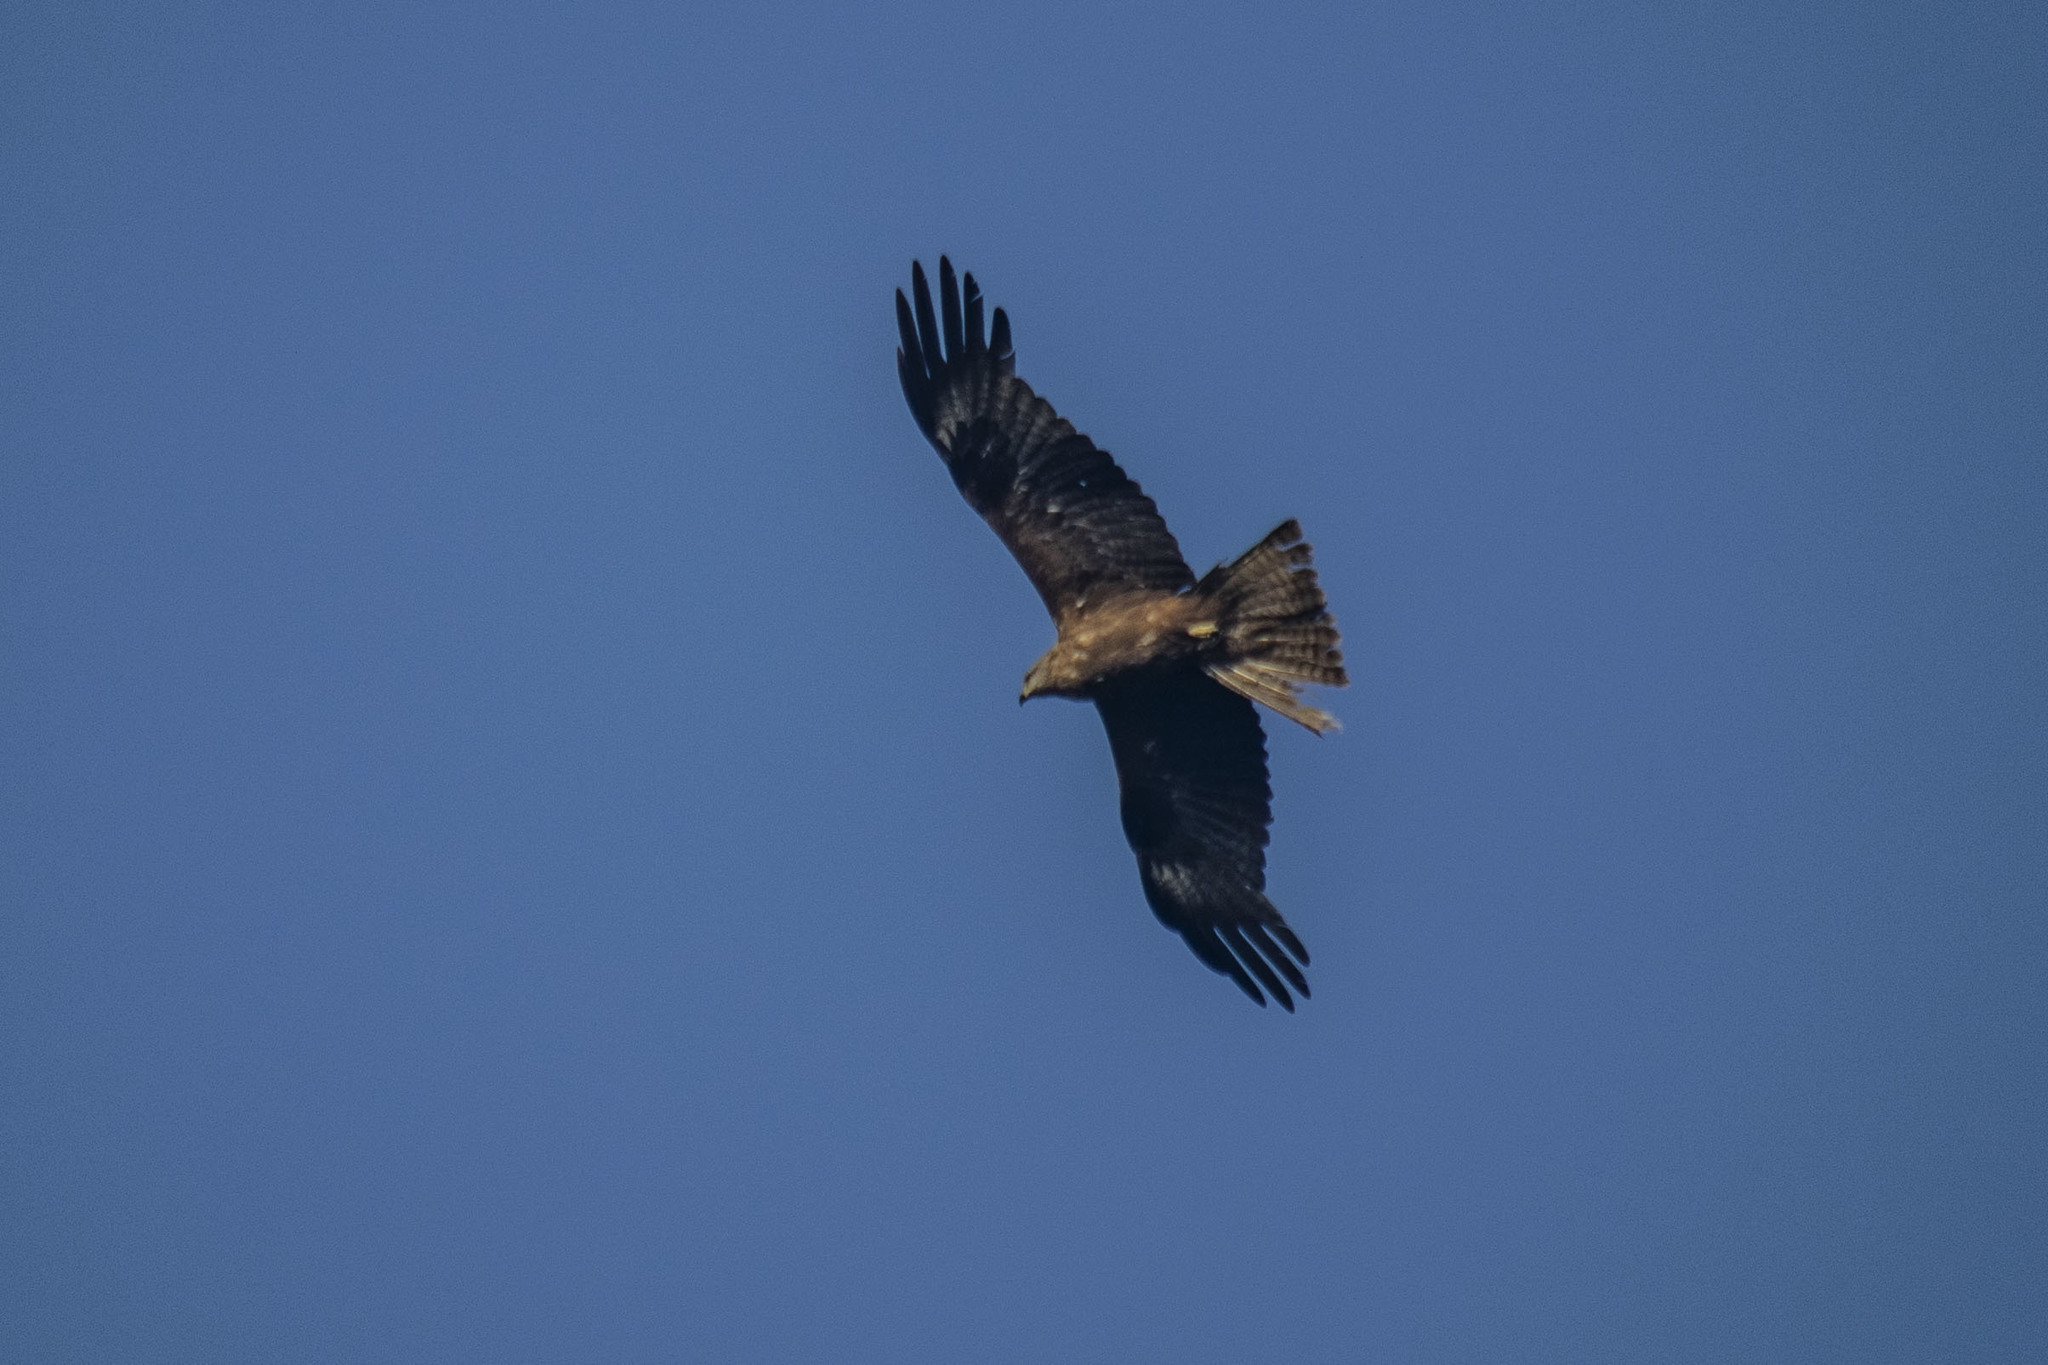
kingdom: Animalia
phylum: Chordata
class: Aves
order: Accipitriformes
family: Accipitridae
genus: Milvus
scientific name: Milvus migrans
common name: Black kite
